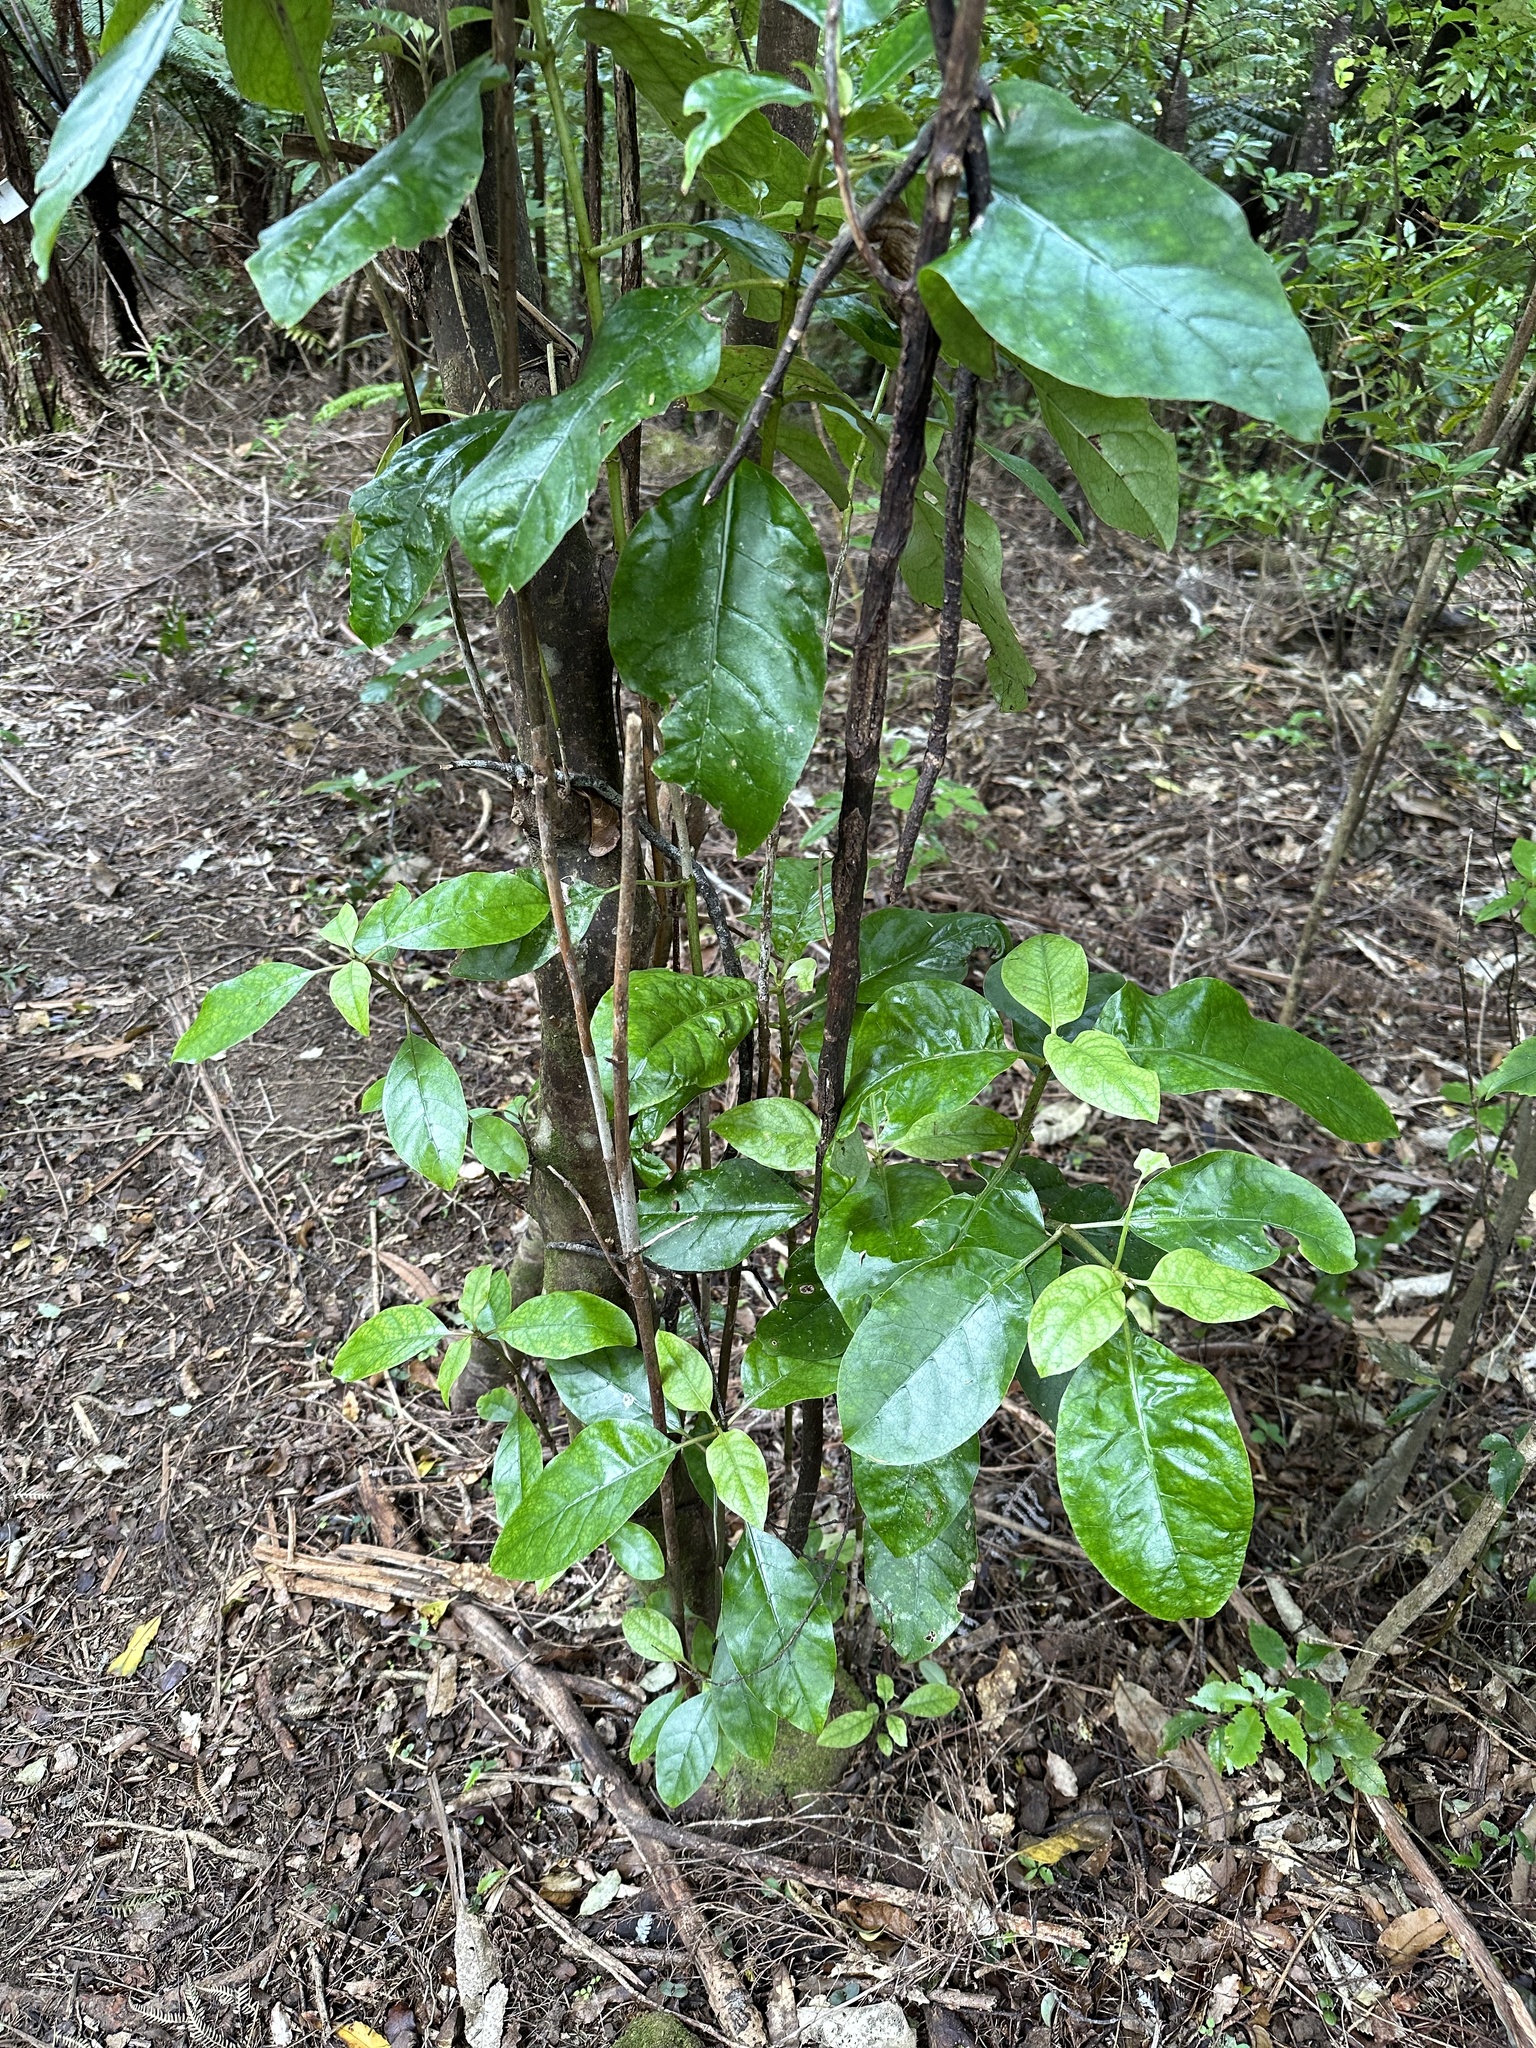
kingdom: Plantae
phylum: Tracheophyta
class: Magnoliopsida
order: Gentianales
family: Rubiaceae
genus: Coprosma
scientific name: Coprosma autumnalis
